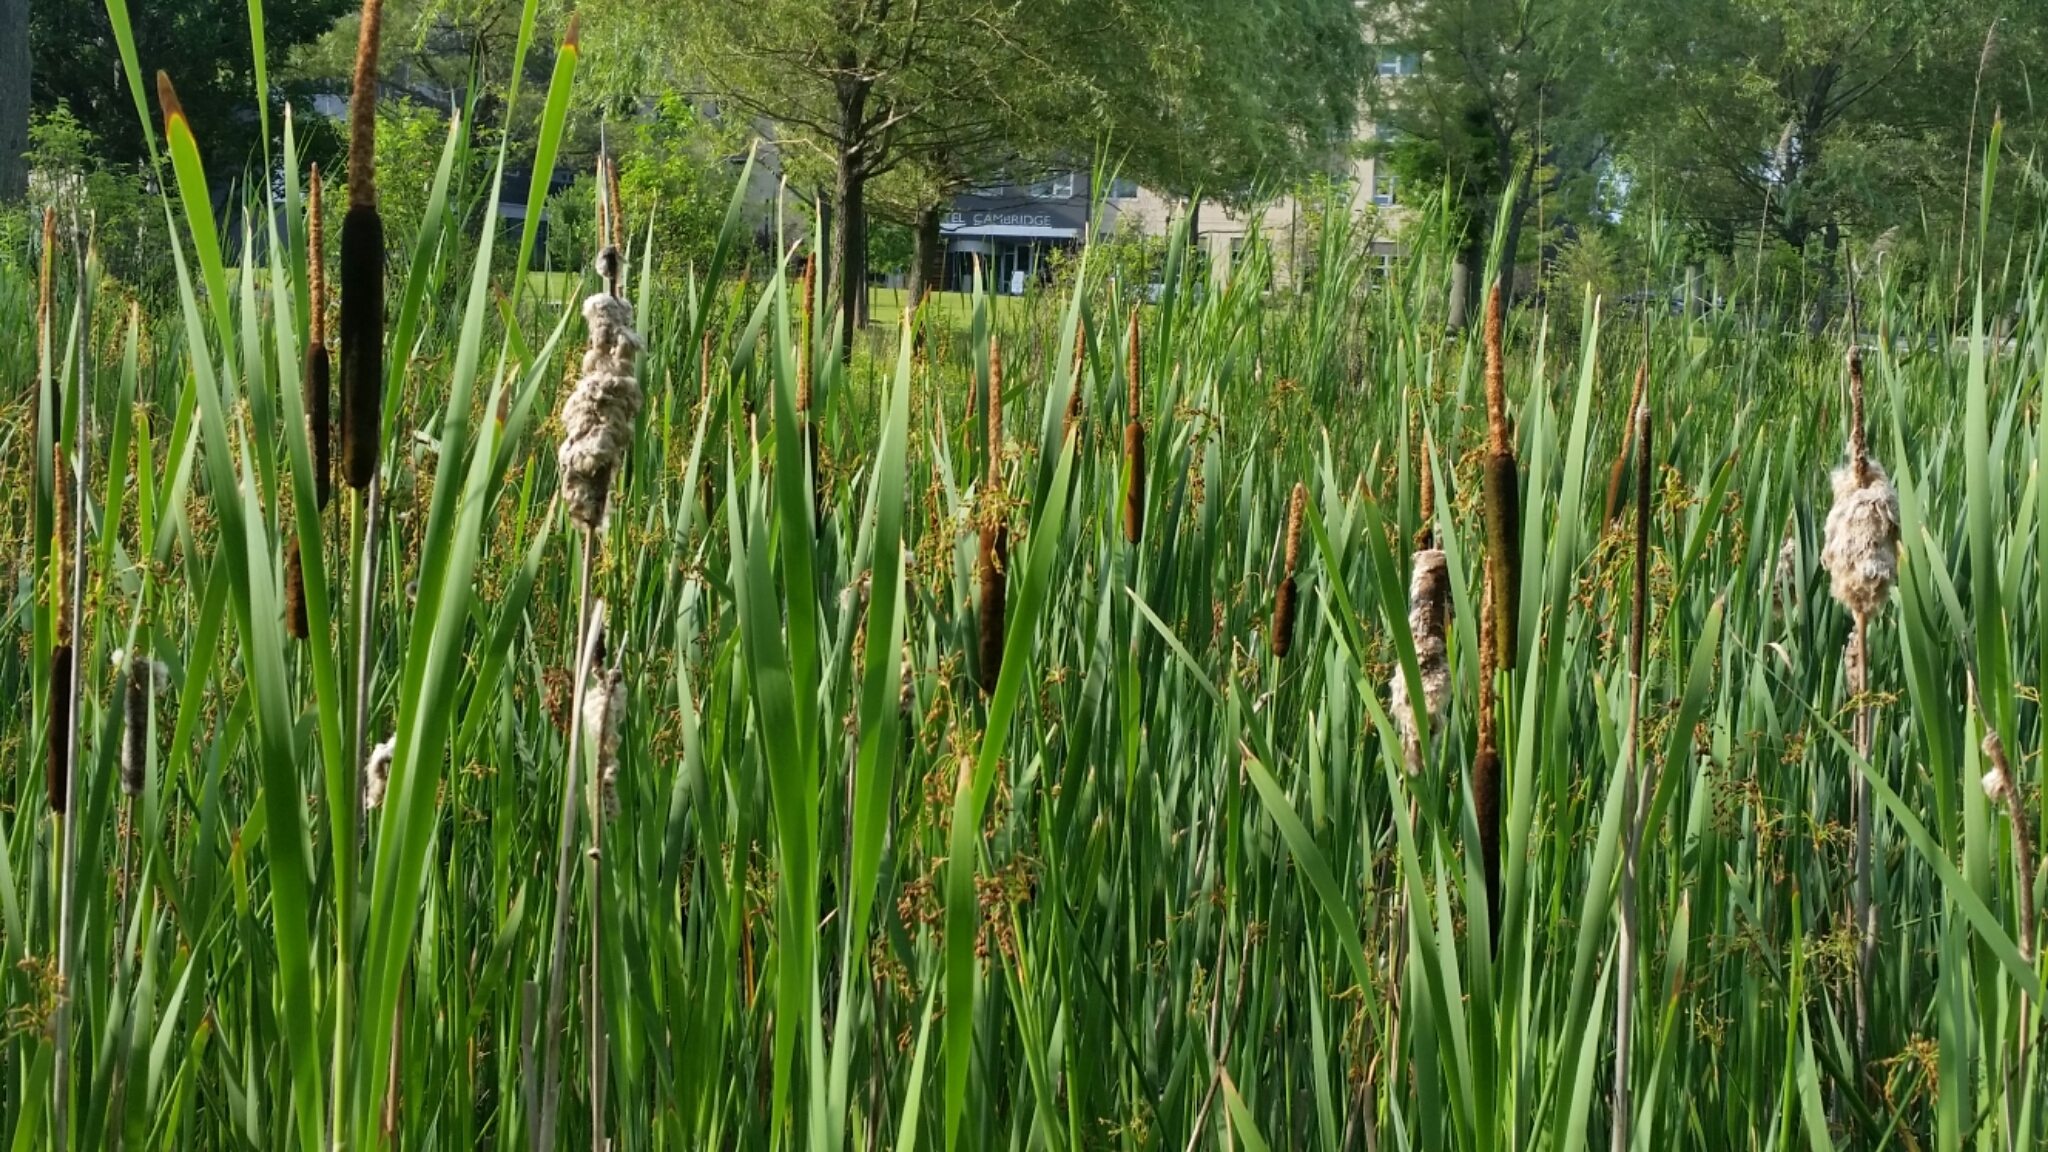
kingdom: Plantae
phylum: Tracheophyta
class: Liliopsida
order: Poales
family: Typhaceae
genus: Typha
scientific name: Typha latifolia
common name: Broadleaf cattail
